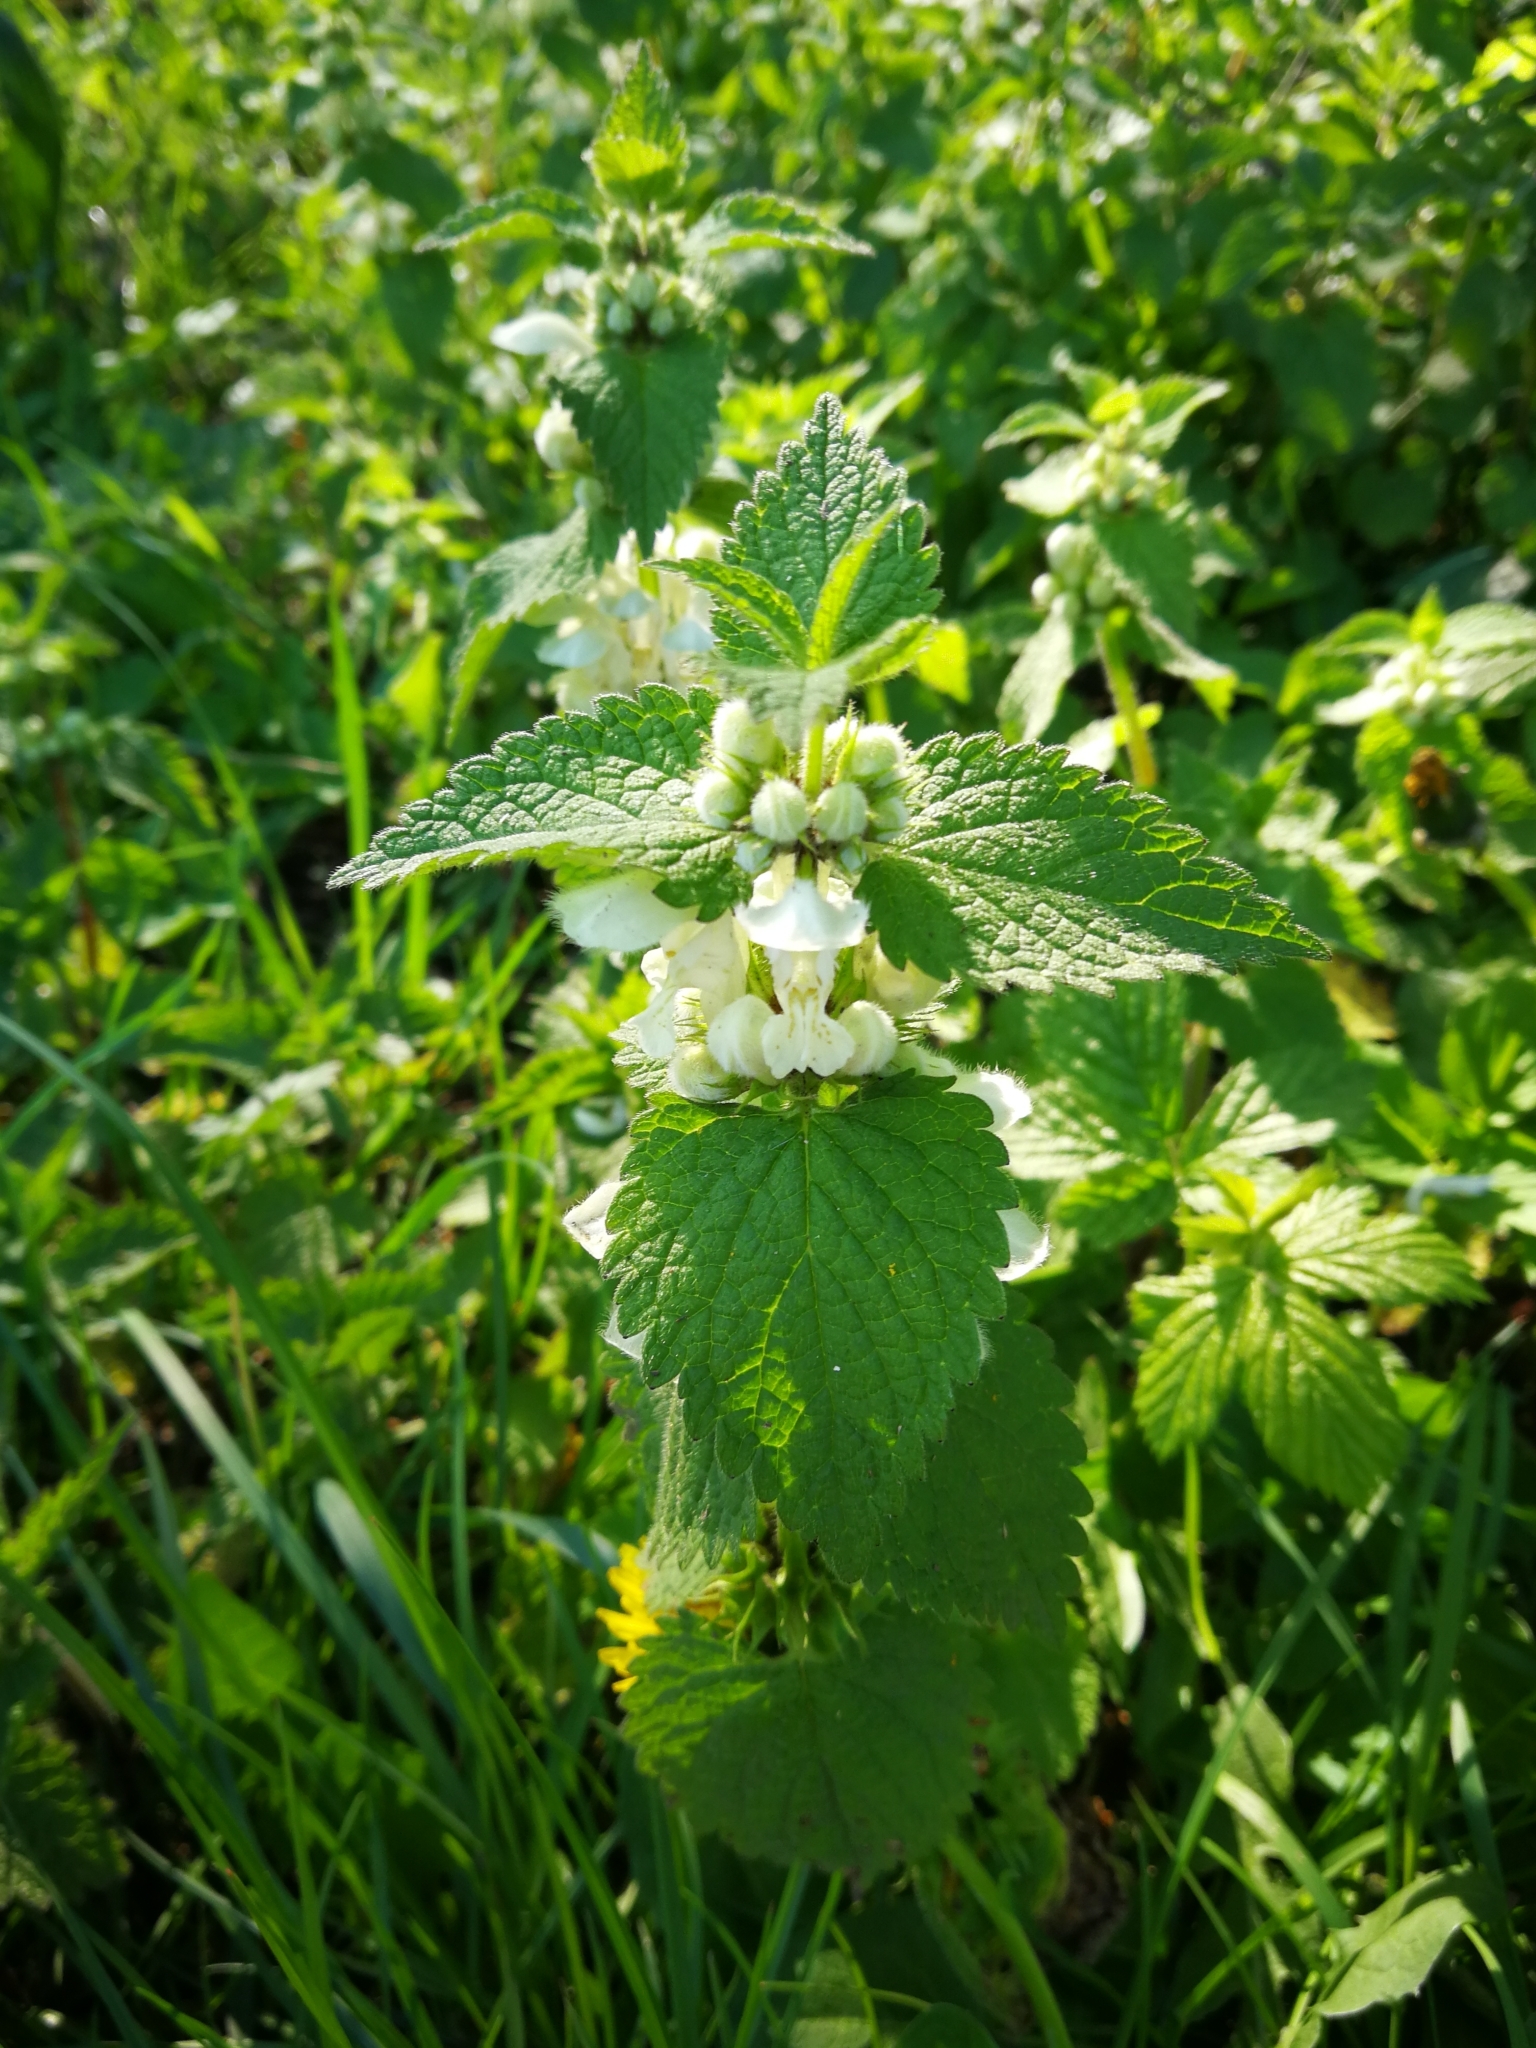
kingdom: Plantae
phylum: Tracheophyta
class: Magnoliopsida
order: Lamiales
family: Lamiaceae
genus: Lamium
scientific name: Lamium album
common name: White dead-nettle
